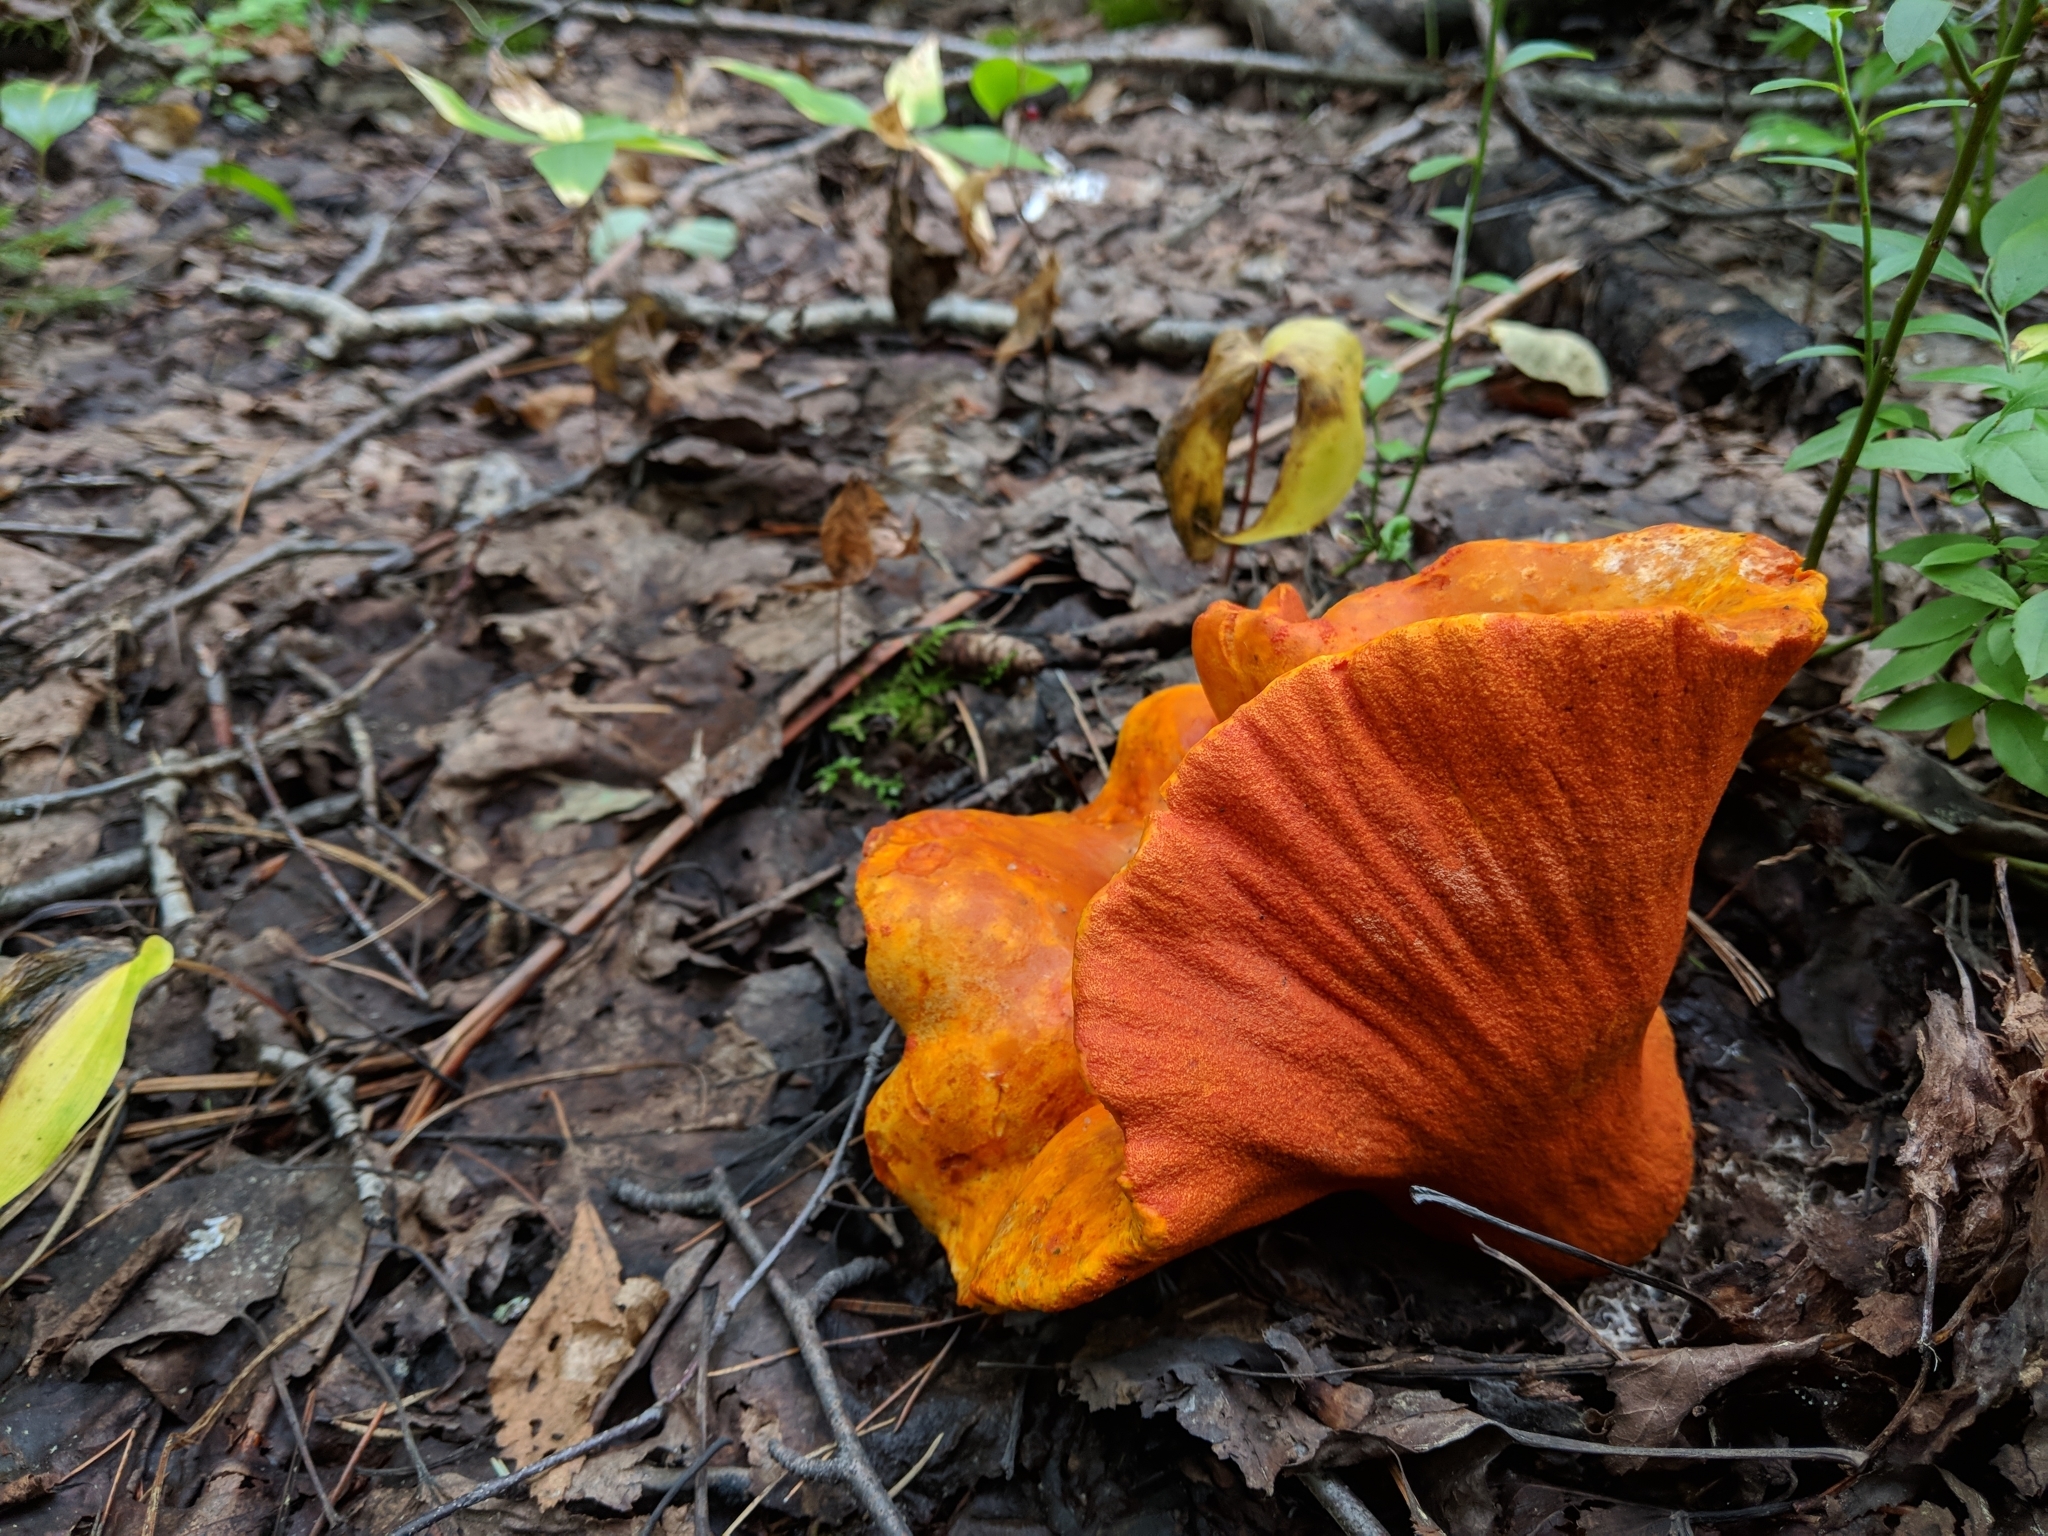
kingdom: Fungi
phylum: Ascomycota
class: Sordariomycetes
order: Hypocreales
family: Hypocreaceae
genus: Hypomyces
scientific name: Hypomyces lactifluorum
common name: Lobster mushroom
